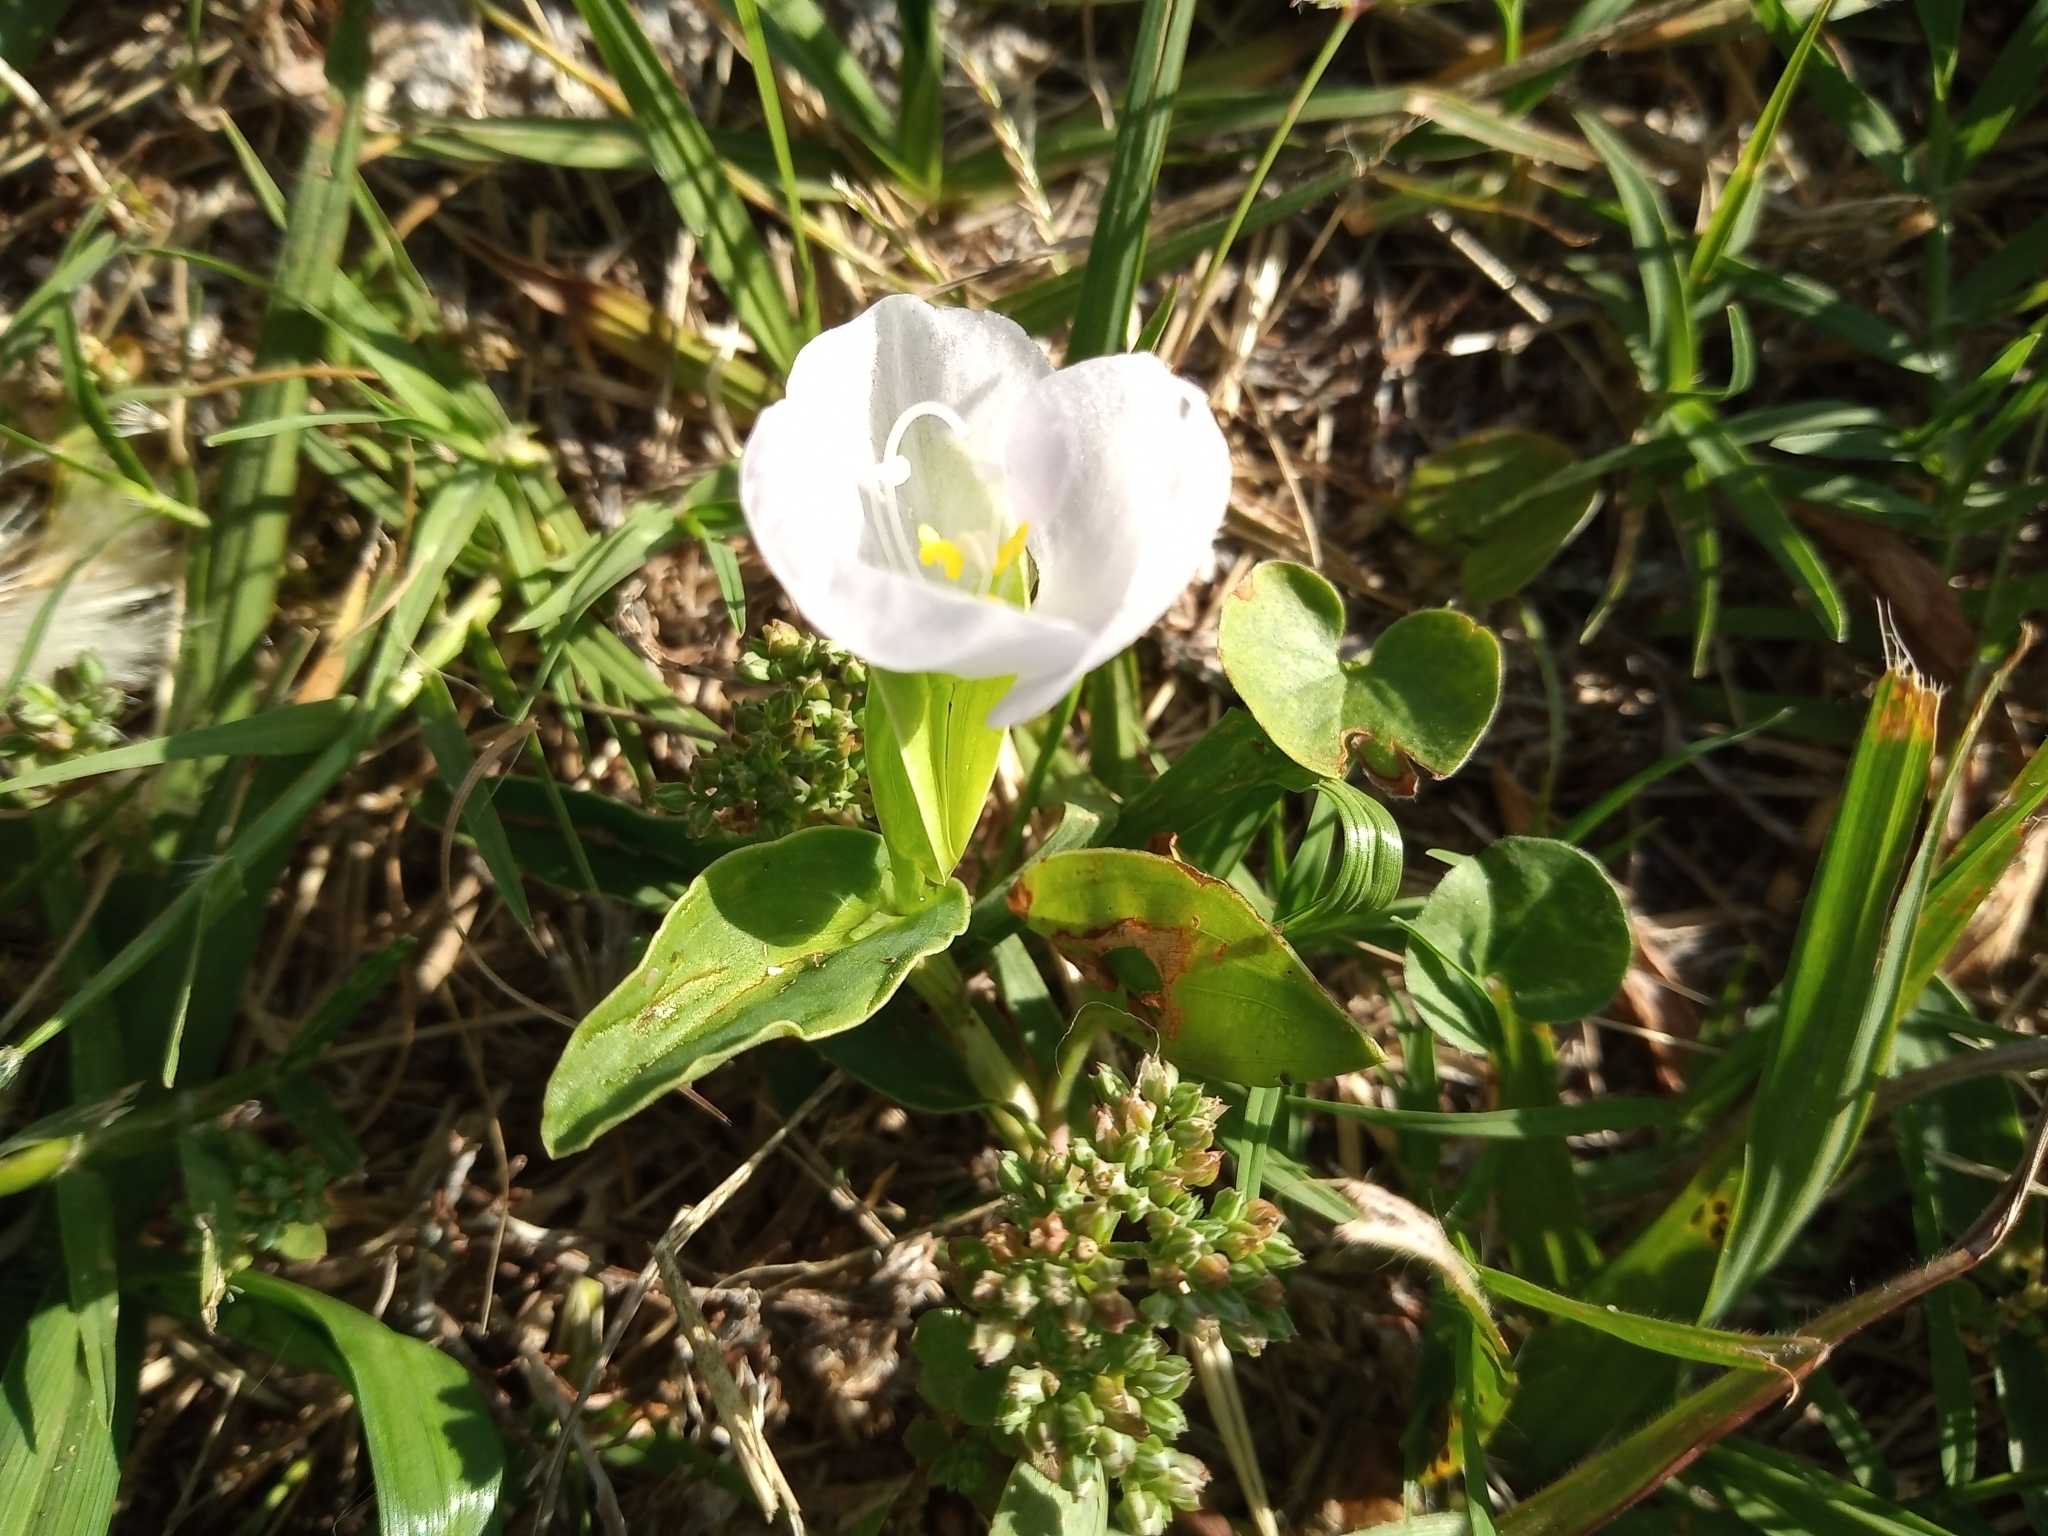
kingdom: Plantae
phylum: Tracheophyta
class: Liliopsida
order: Commelinales
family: Commelinaceae
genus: Commelina
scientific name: Commelina platyphylla
